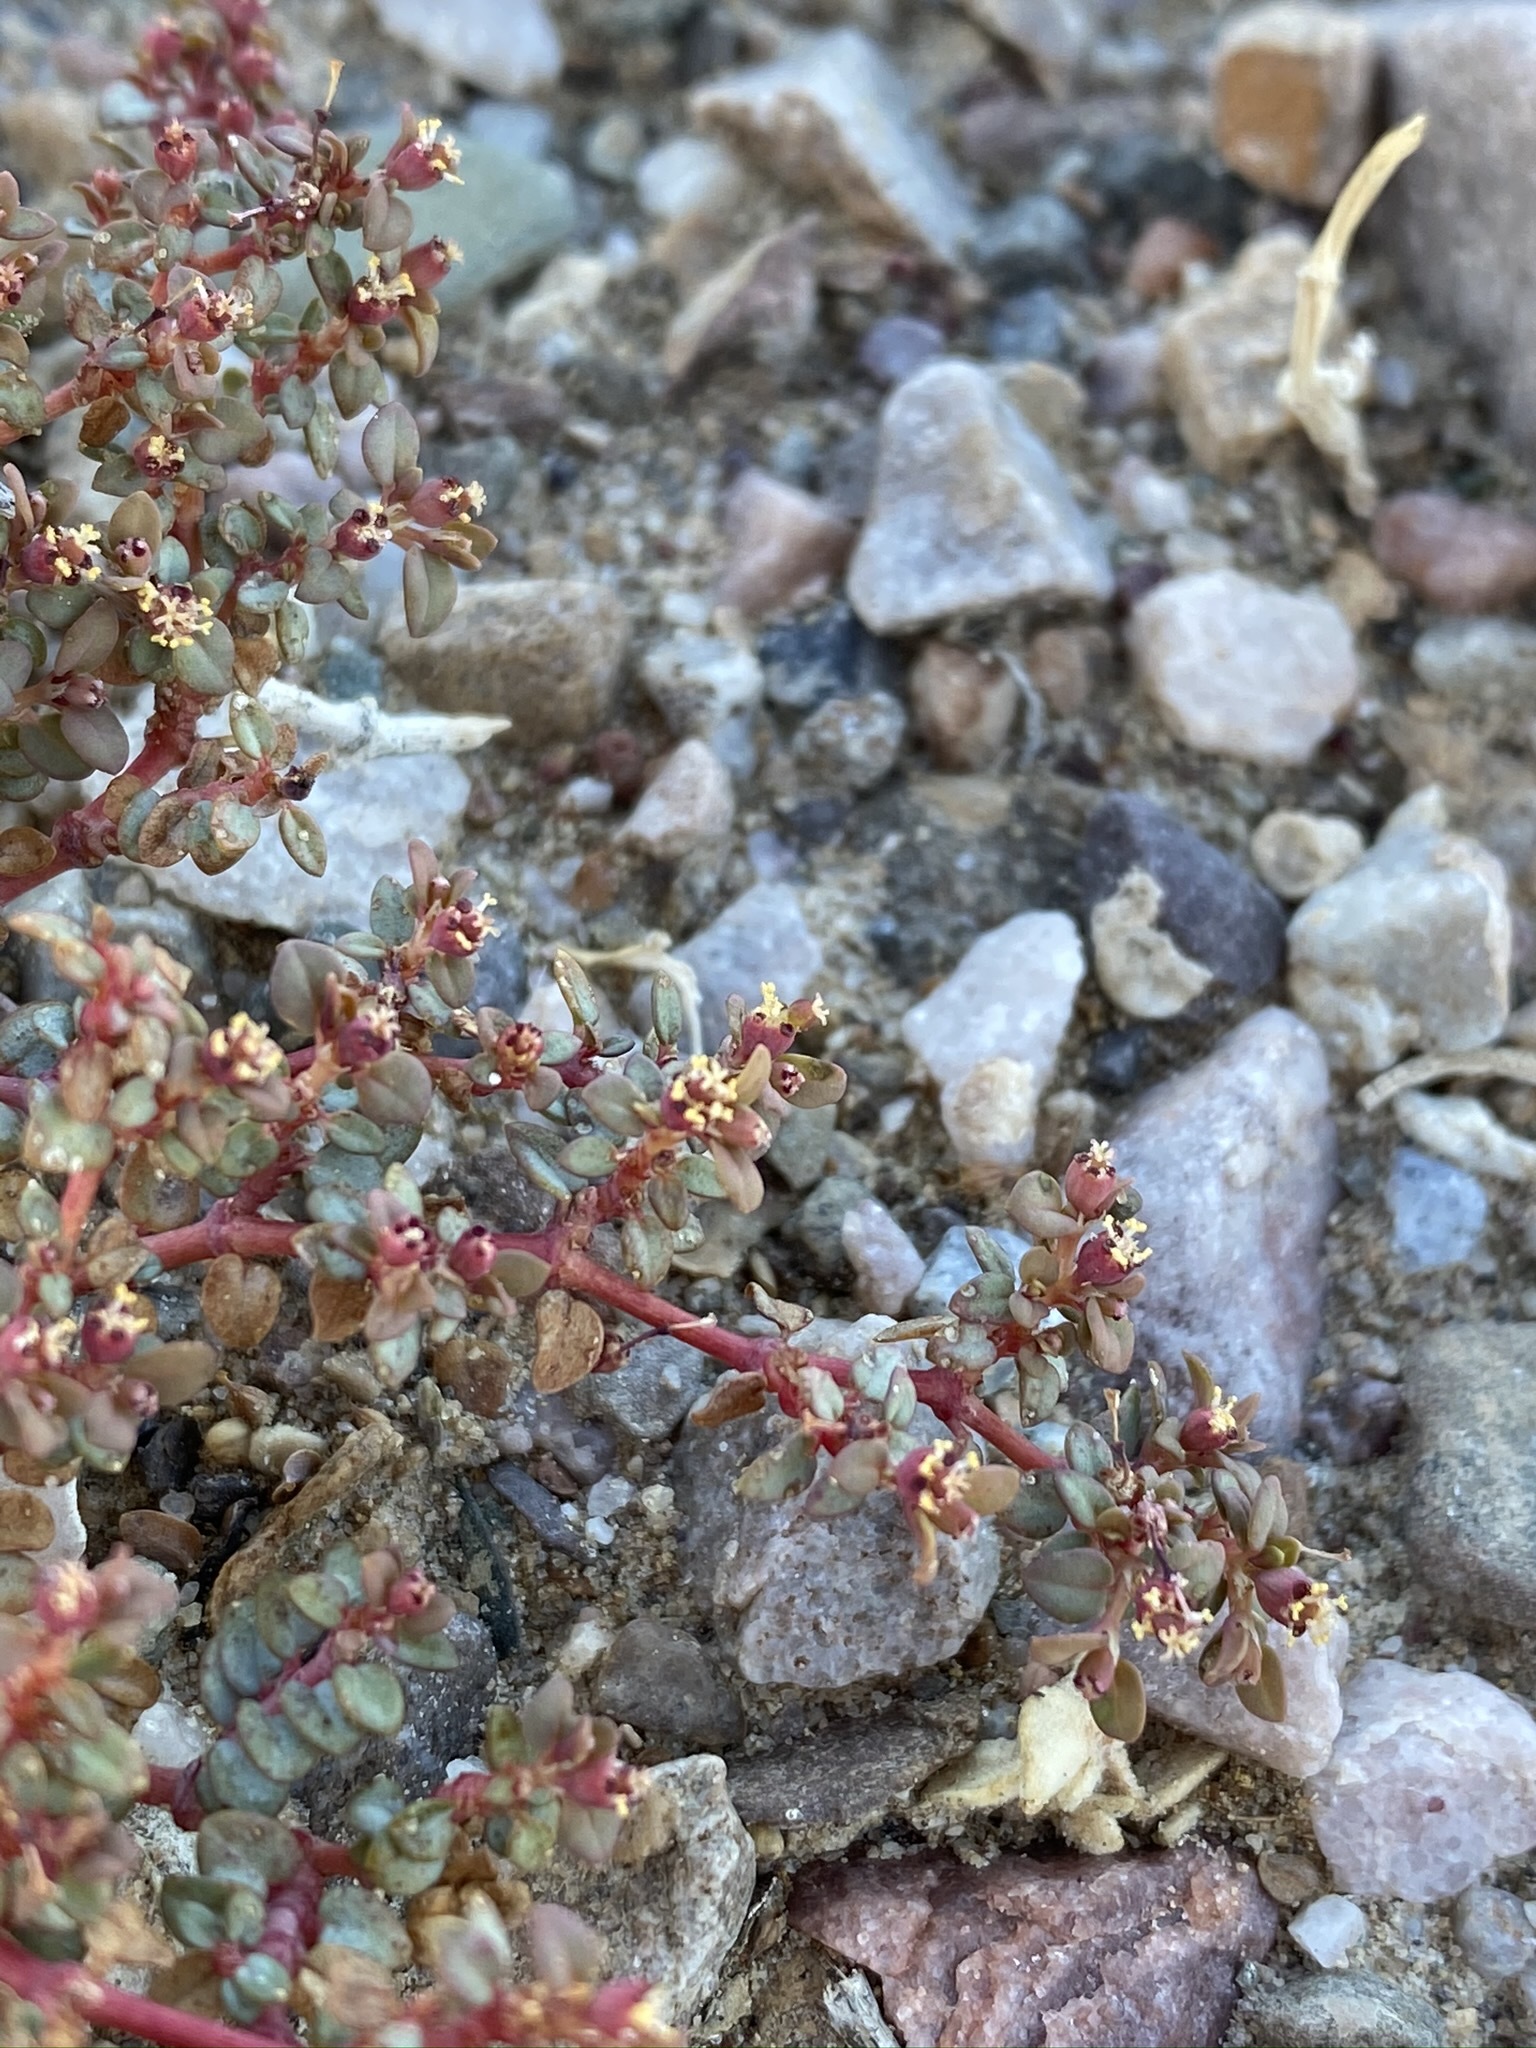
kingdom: Plantae
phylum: Tracheophyta
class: Magnoliopsida
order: Malpighiales
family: Euphorbiaceae
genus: Euphorbia
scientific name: Euphorbia parishii
